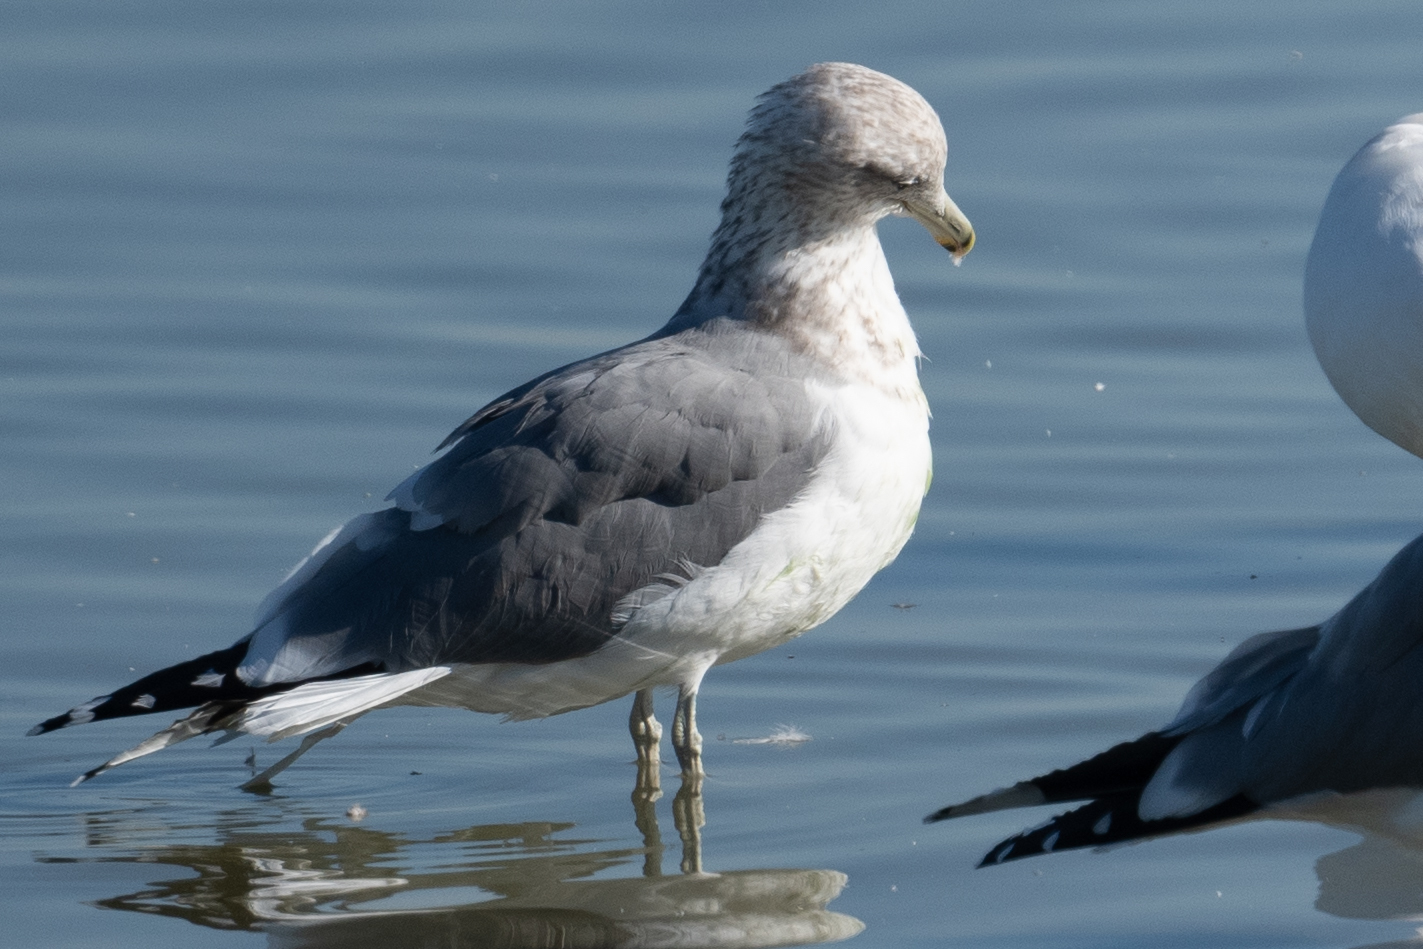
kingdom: Animalia
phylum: Chordata
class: Aves
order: Charadriiformes
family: Laridae
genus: Larus
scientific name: Larus californicus
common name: California gull
